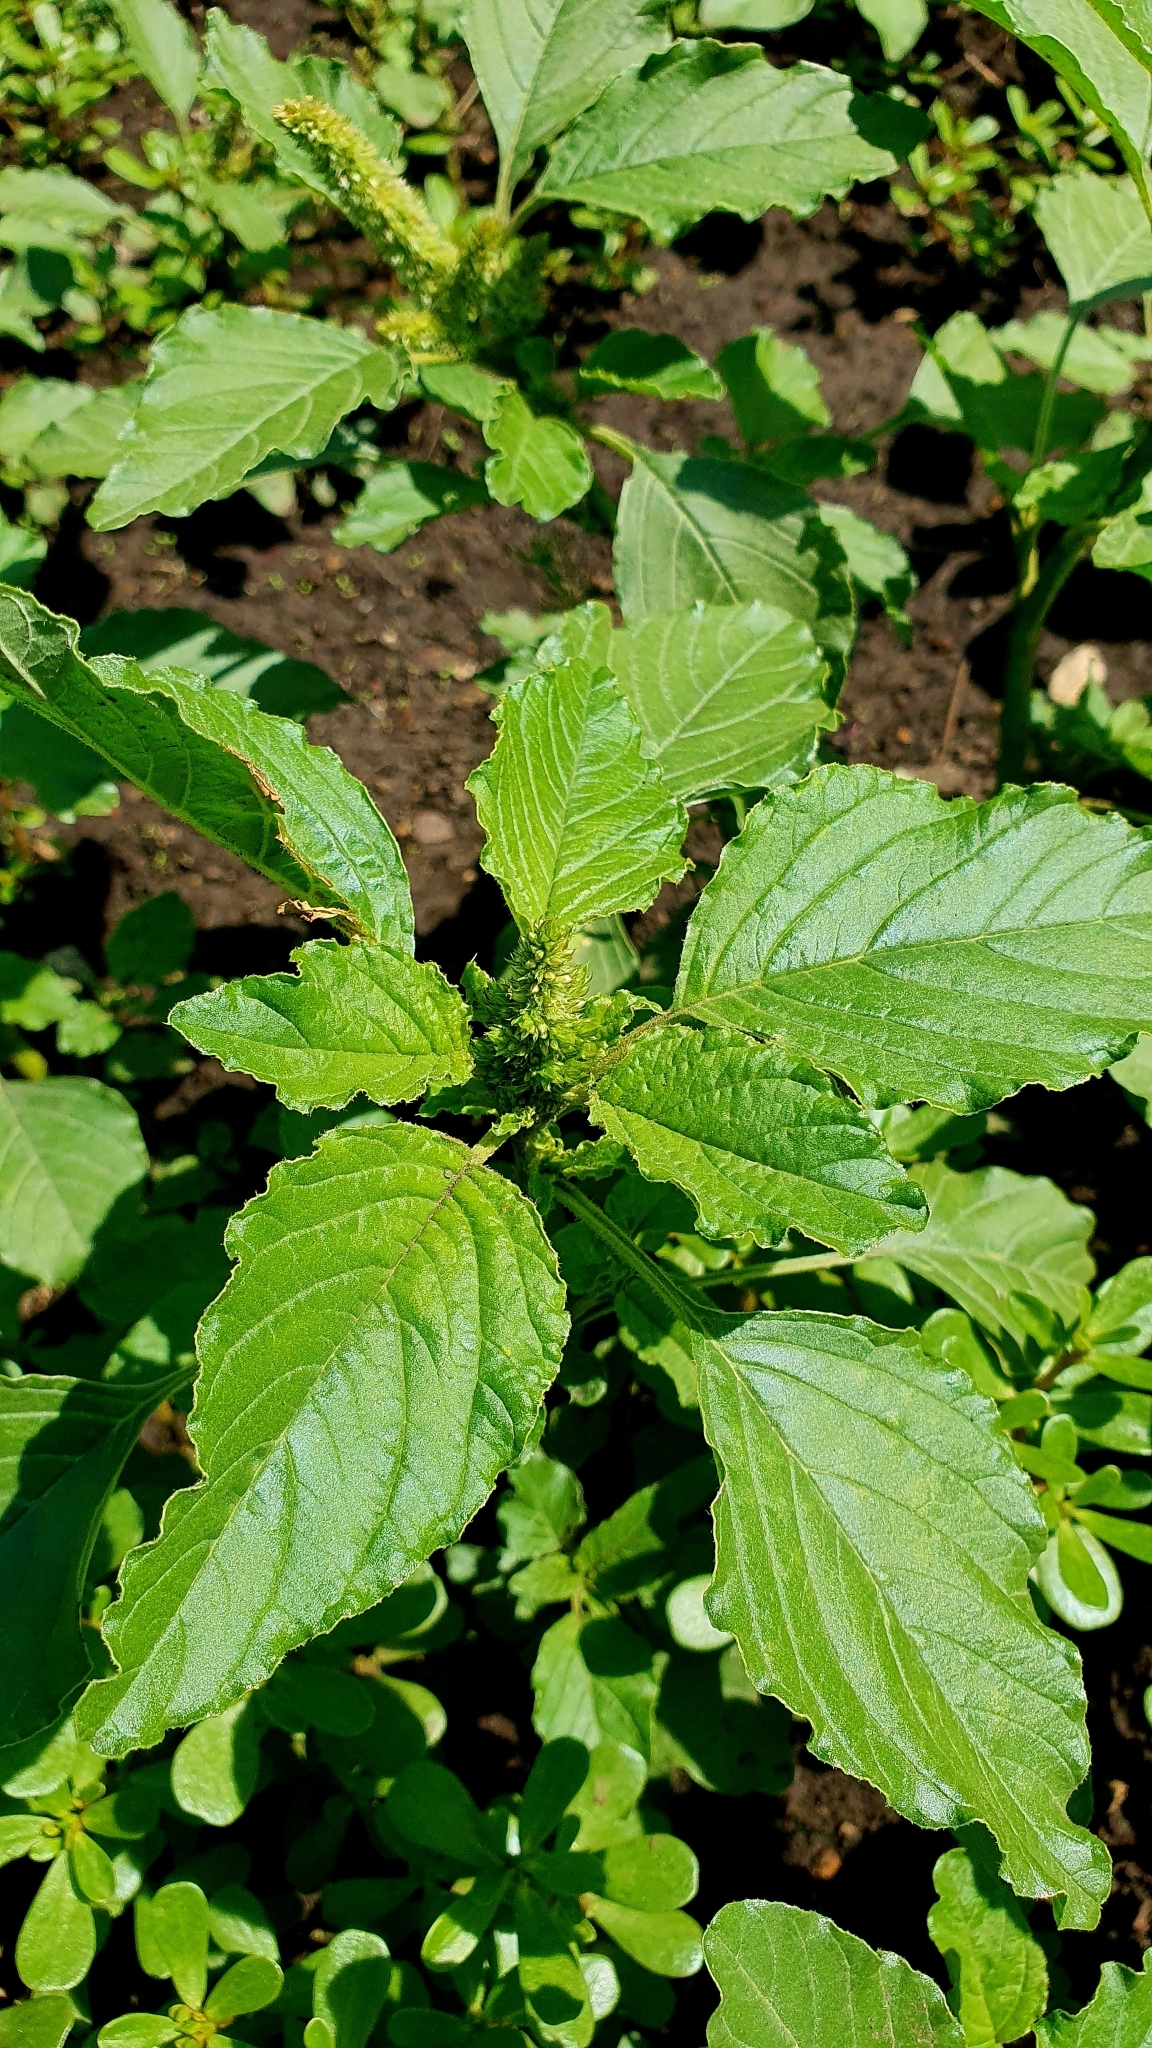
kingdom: Plantae
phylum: Tracheophyta
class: Magnoliopsida
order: Caryophyllales
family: Amaranthaceae
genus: Amaranthus
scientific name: Amaranthus retroflexus
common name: Redroot amaranth
